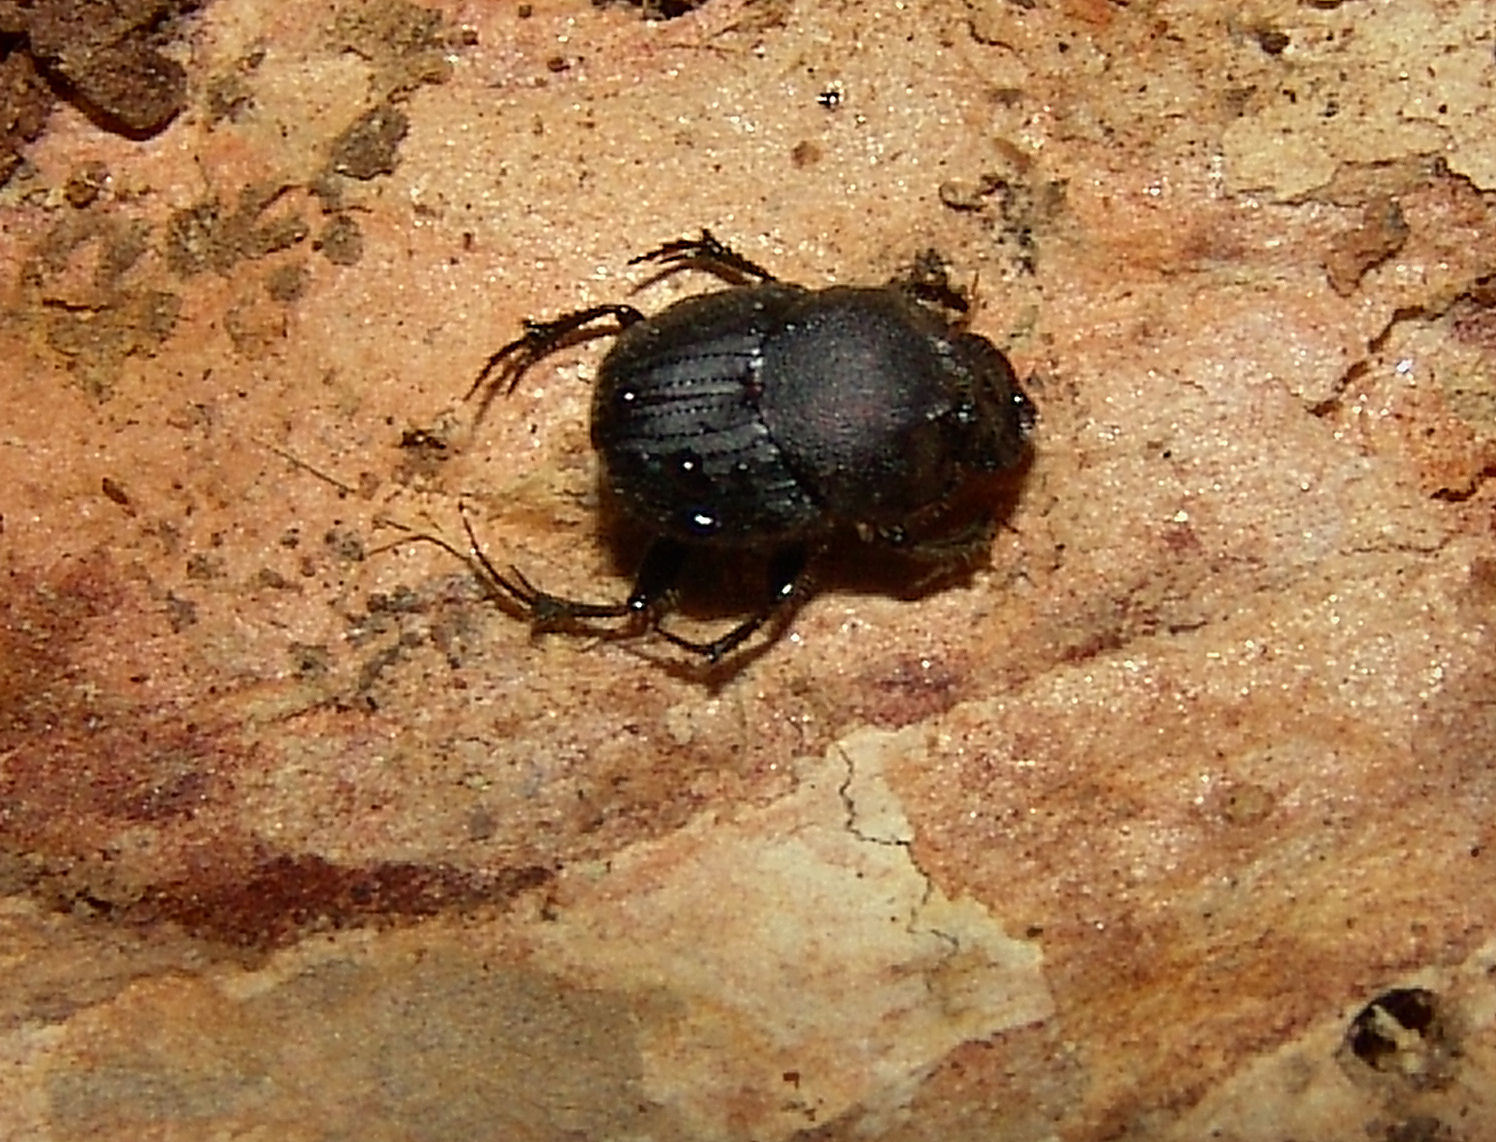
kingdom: Animalia
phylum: Arthropoda
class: Insecta
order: Coleoptera
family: Scarabaeidae
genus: Onthophagus
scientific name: Onthophagus hecate
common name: Scooped scarab
